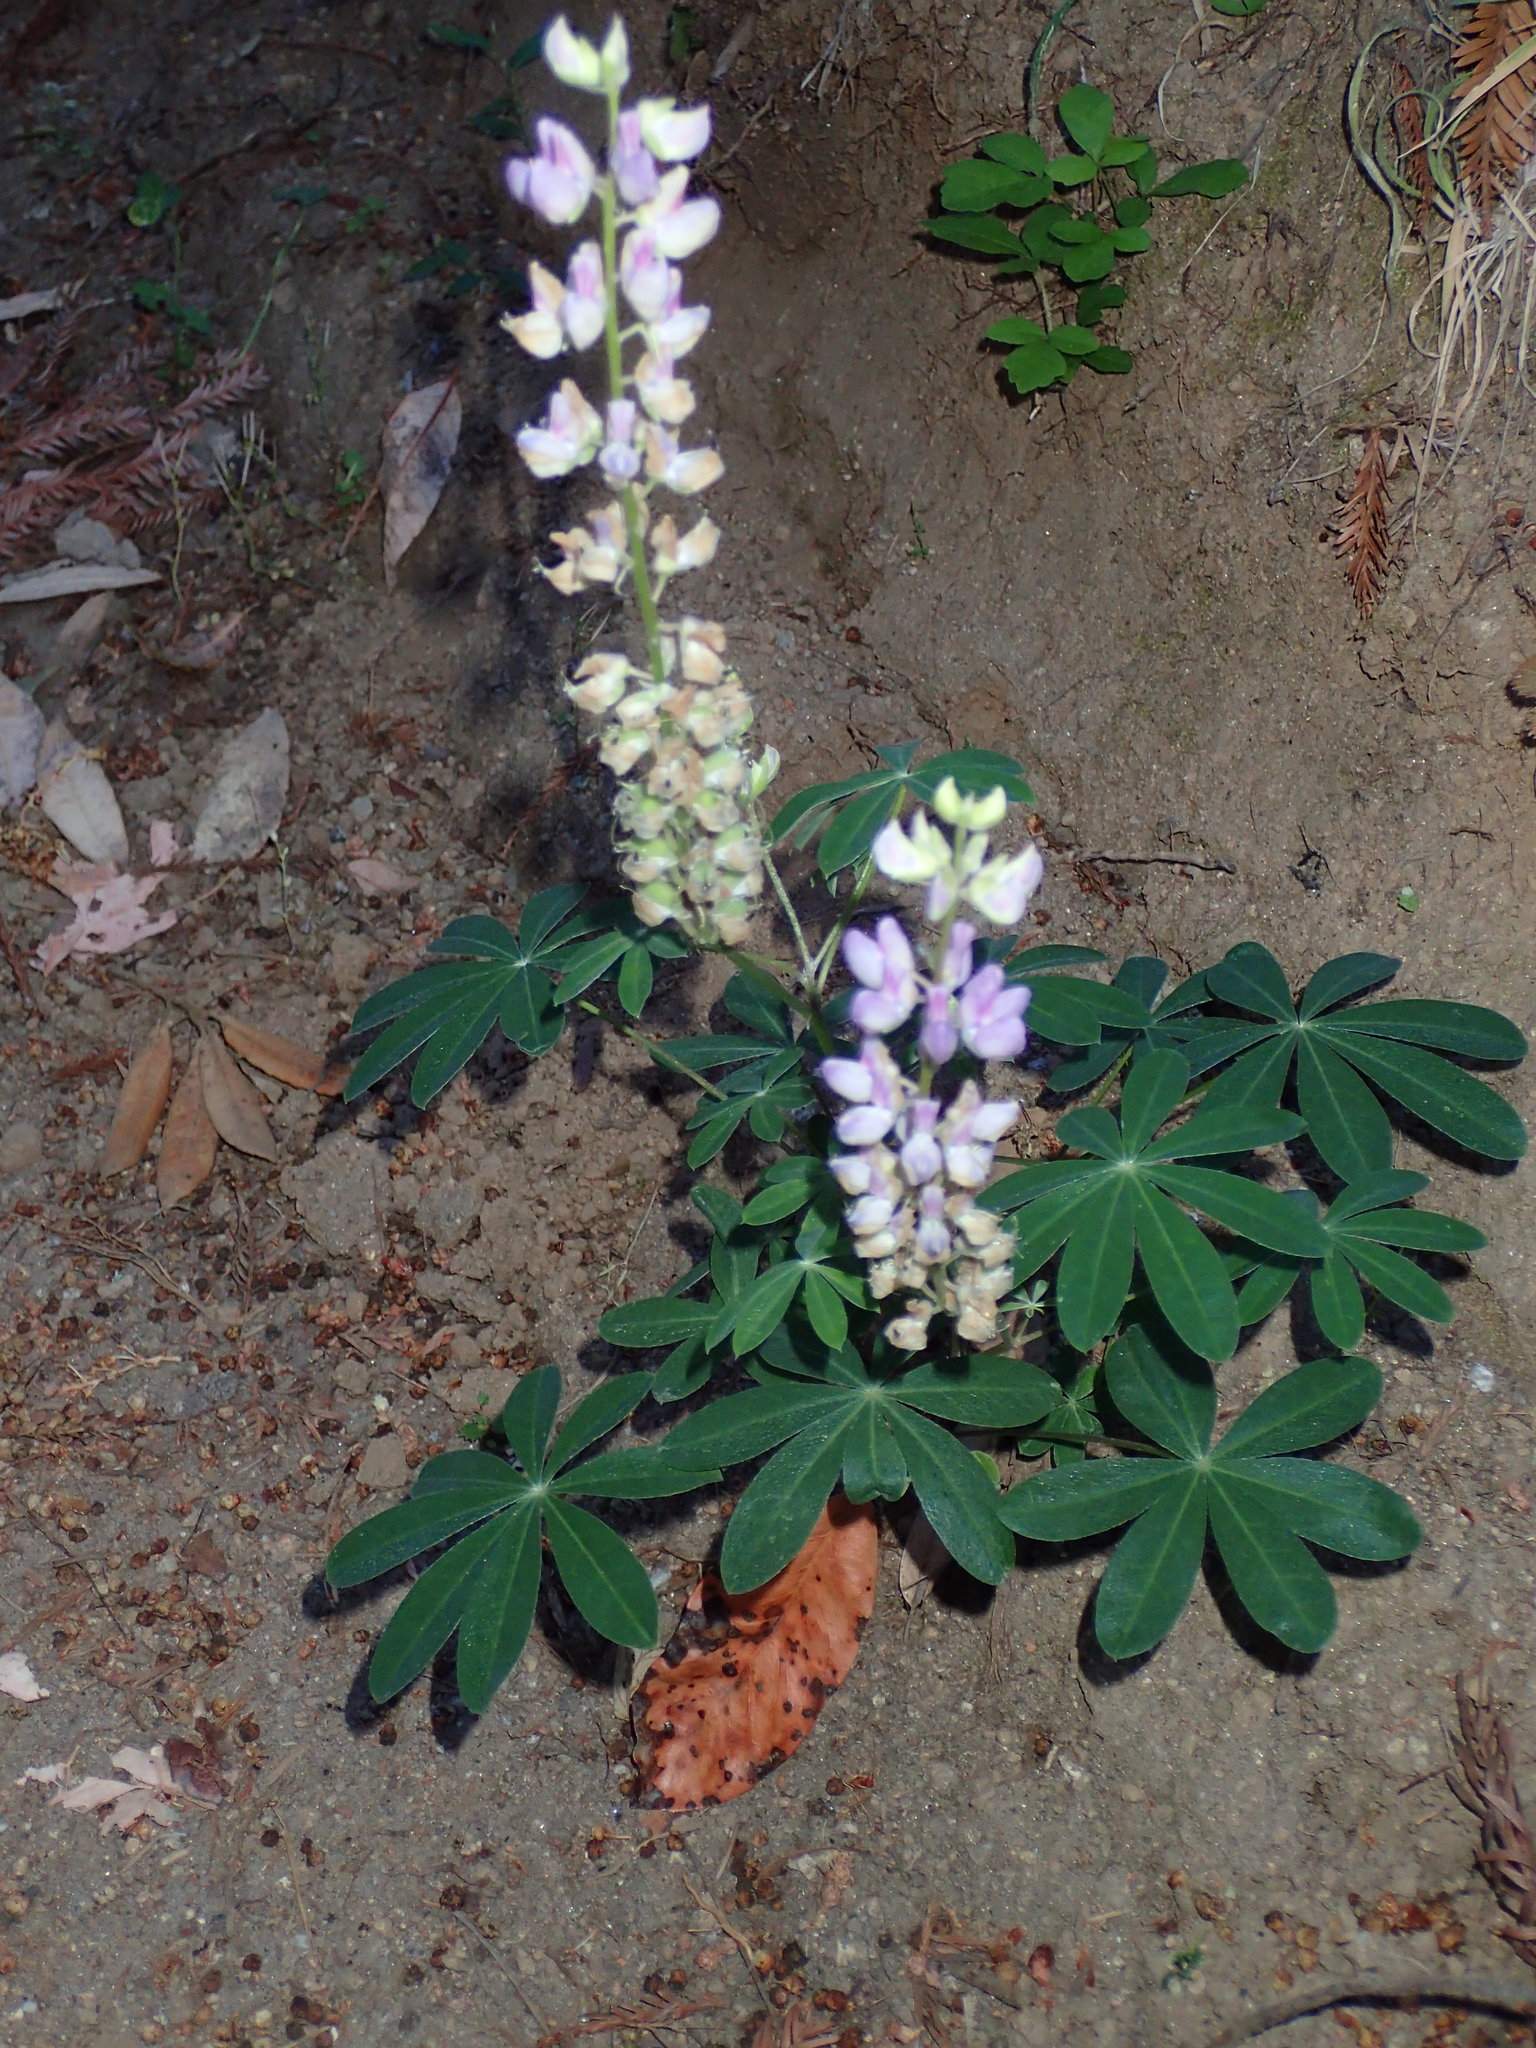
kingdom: Plantae
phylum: Tracheophyta
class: Magnoliopsida
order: Fabales
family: Fabaceae
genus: Lupinus
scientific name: Lupinus latifolius
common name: Broad-leaved lupine
